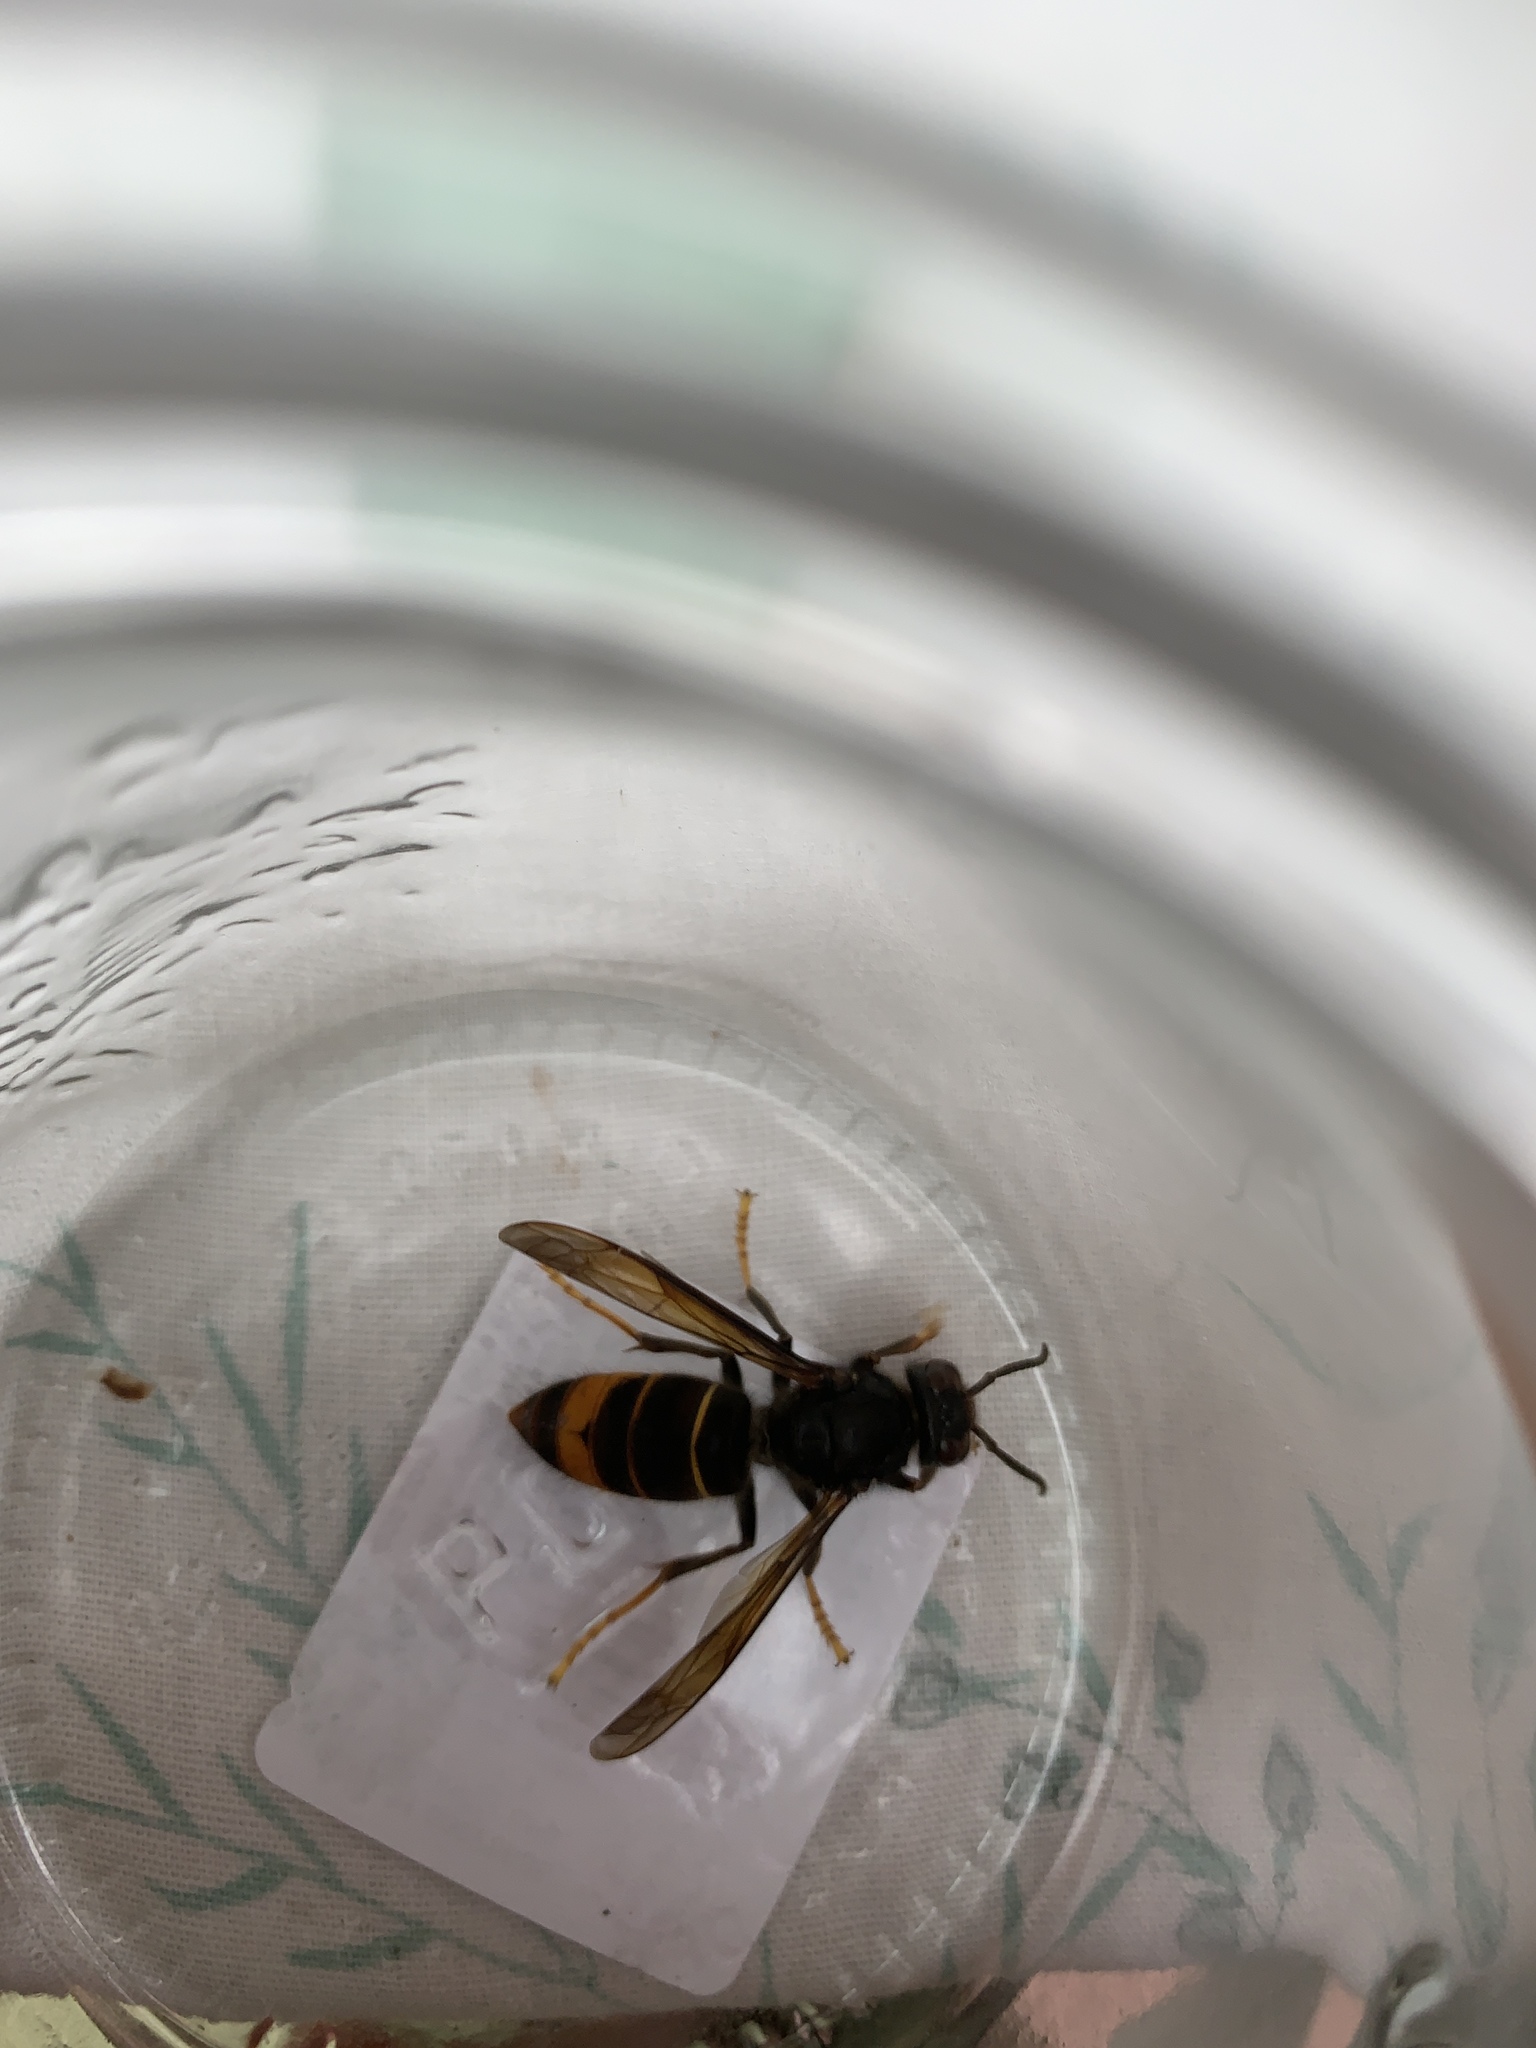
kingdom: Animalia
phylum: Arthropoda
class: Insecta
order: Hymenoptera
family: Vespidae
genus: Vespa
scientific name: Vespa velutina
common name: Asian hornet
